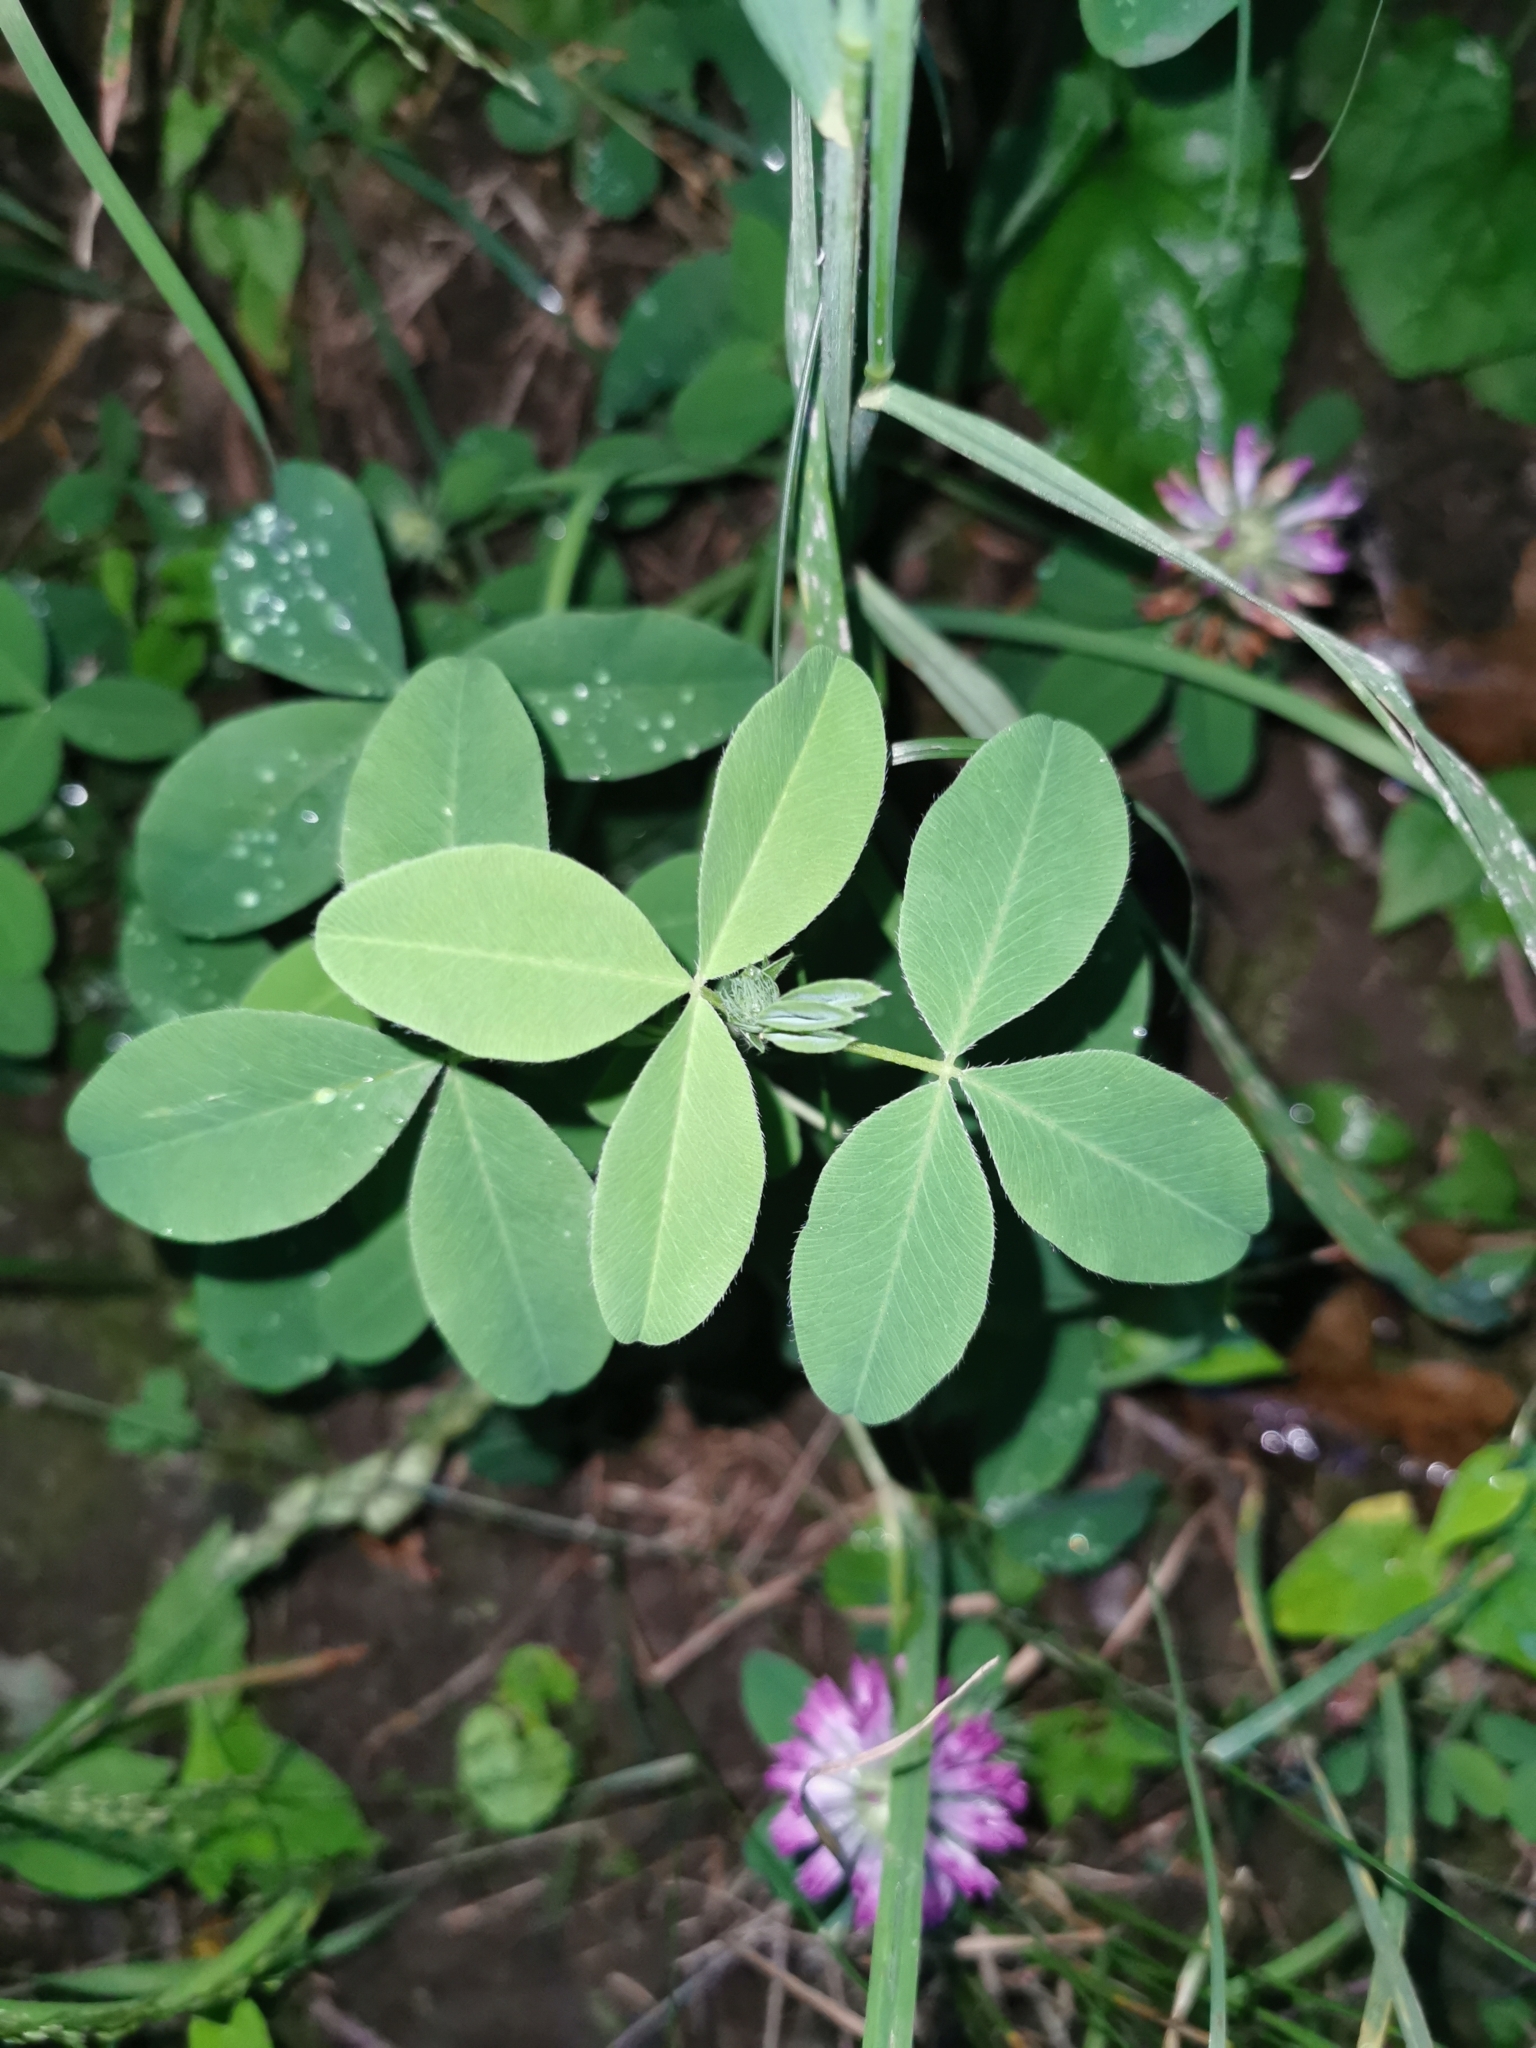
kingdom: Plantae
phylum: Tracheophyta
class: Magnoliopsida
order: Fabales
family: Fabaceae
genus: Trifolium
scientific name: Trifolium medium
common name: Zigzag clover
